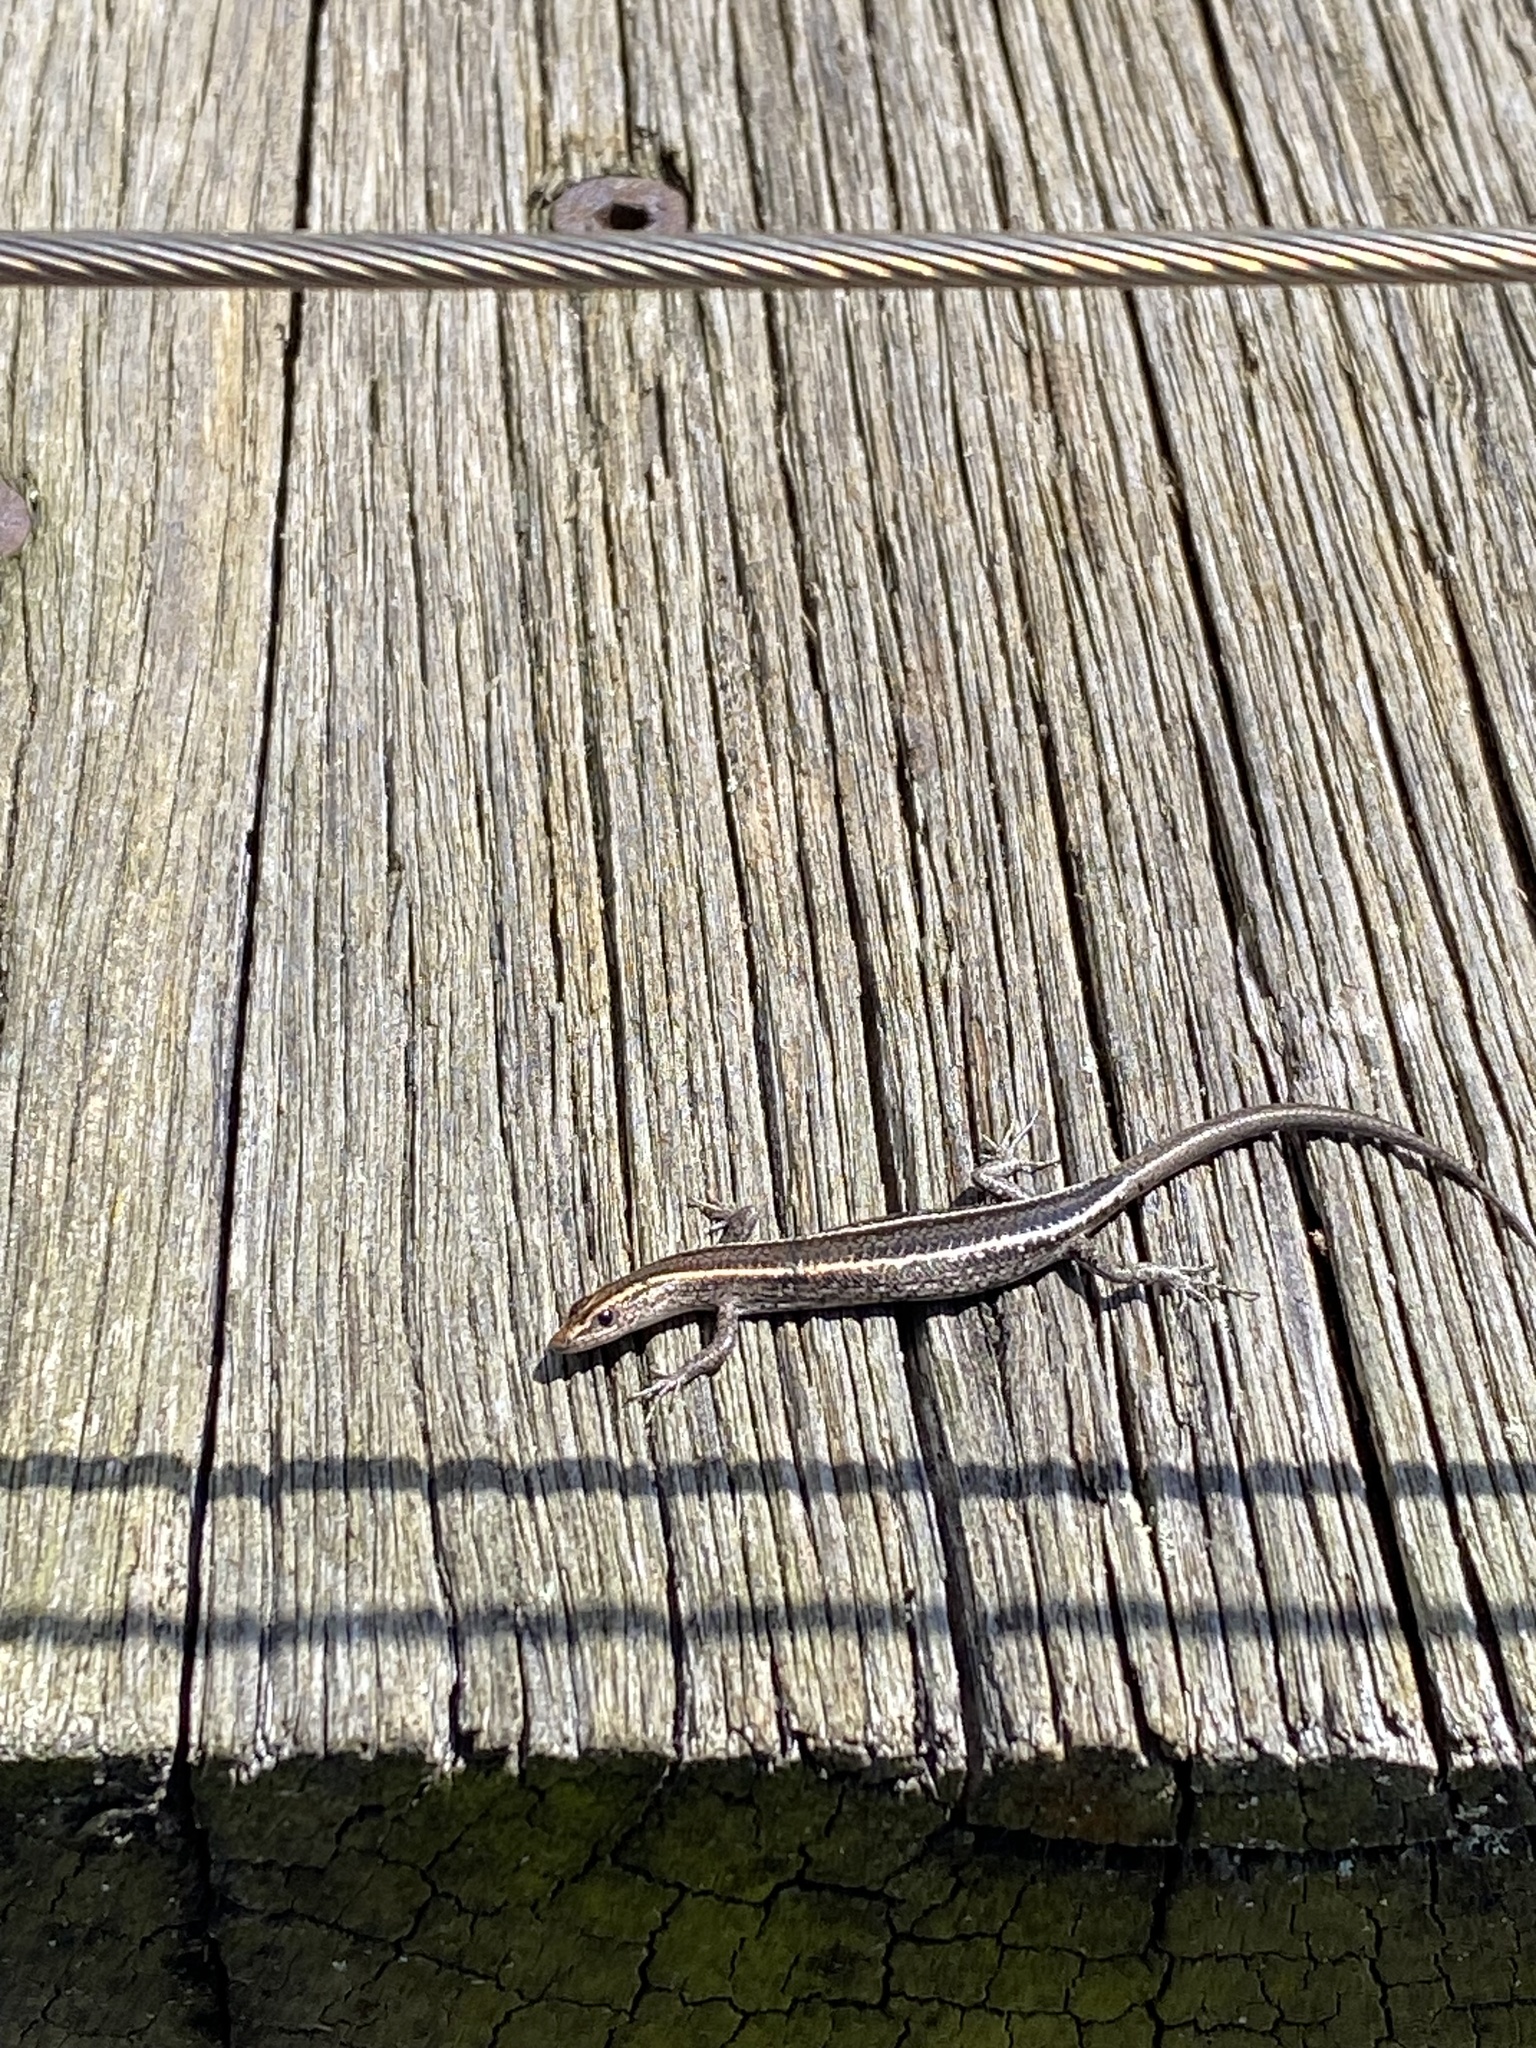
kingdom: Animalia
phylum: Chordata
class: Squamata
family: Scincidae
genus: Cryptoblepharus
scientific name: Cryptoblepharus pulcher
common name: Elegant snake-eyed skink
